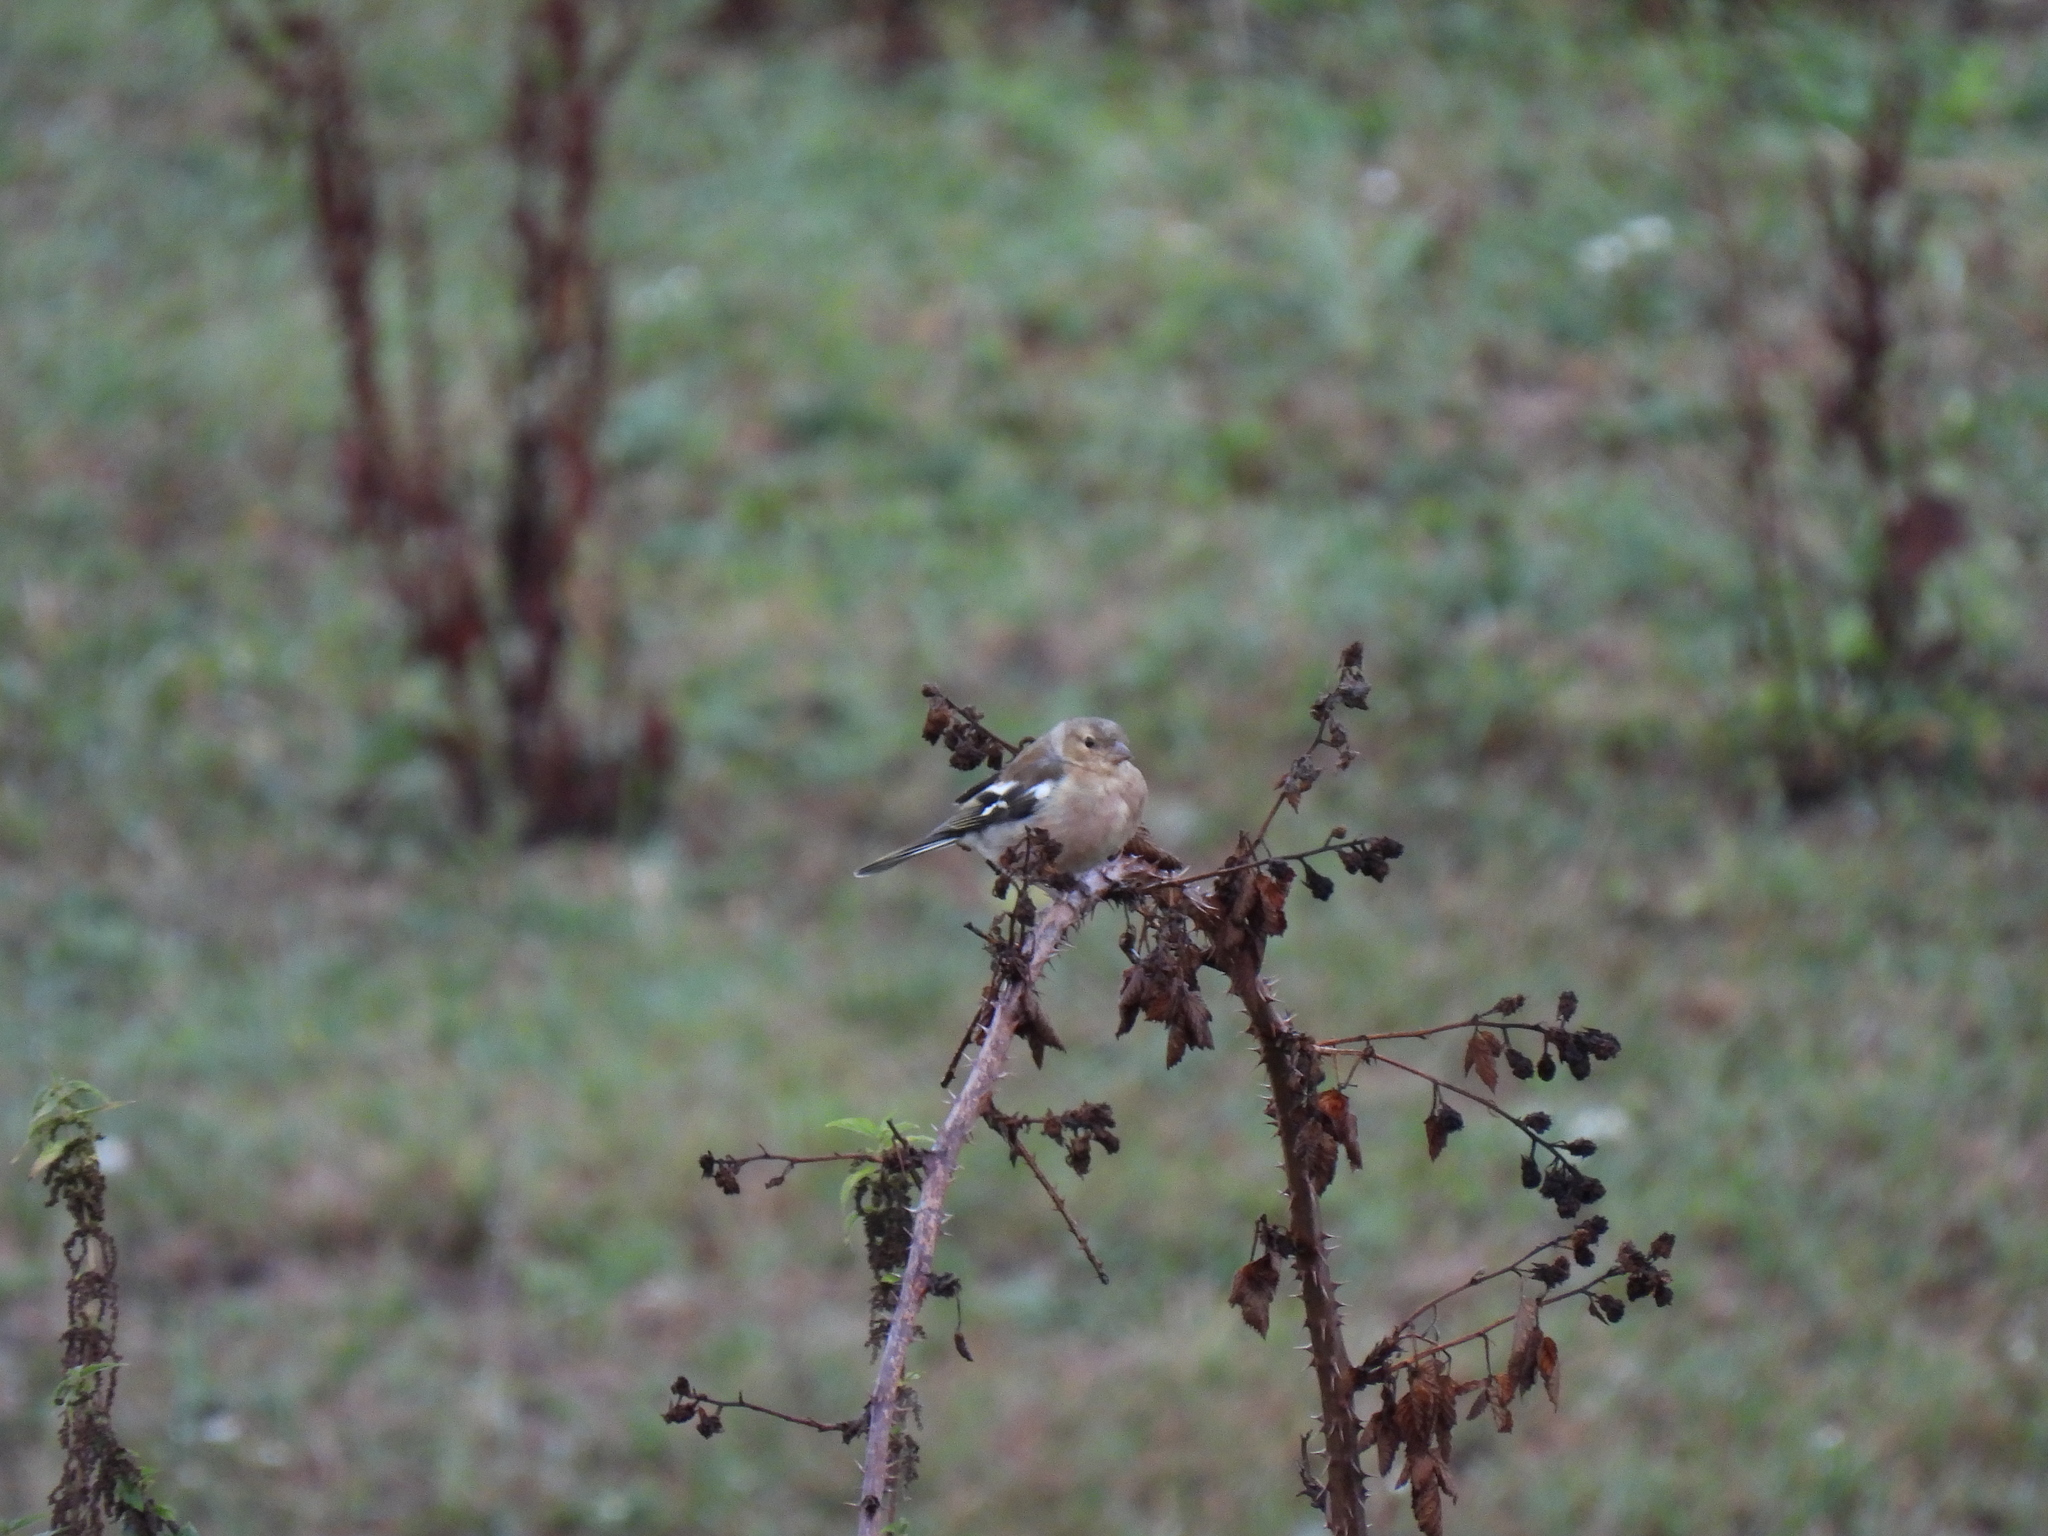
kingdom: Animalia
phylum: Chordata
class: Aves
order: Passeriformes
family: Fringillidae
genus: Fringilla
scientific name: Fringilla coelebs
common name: Common chaffinch
